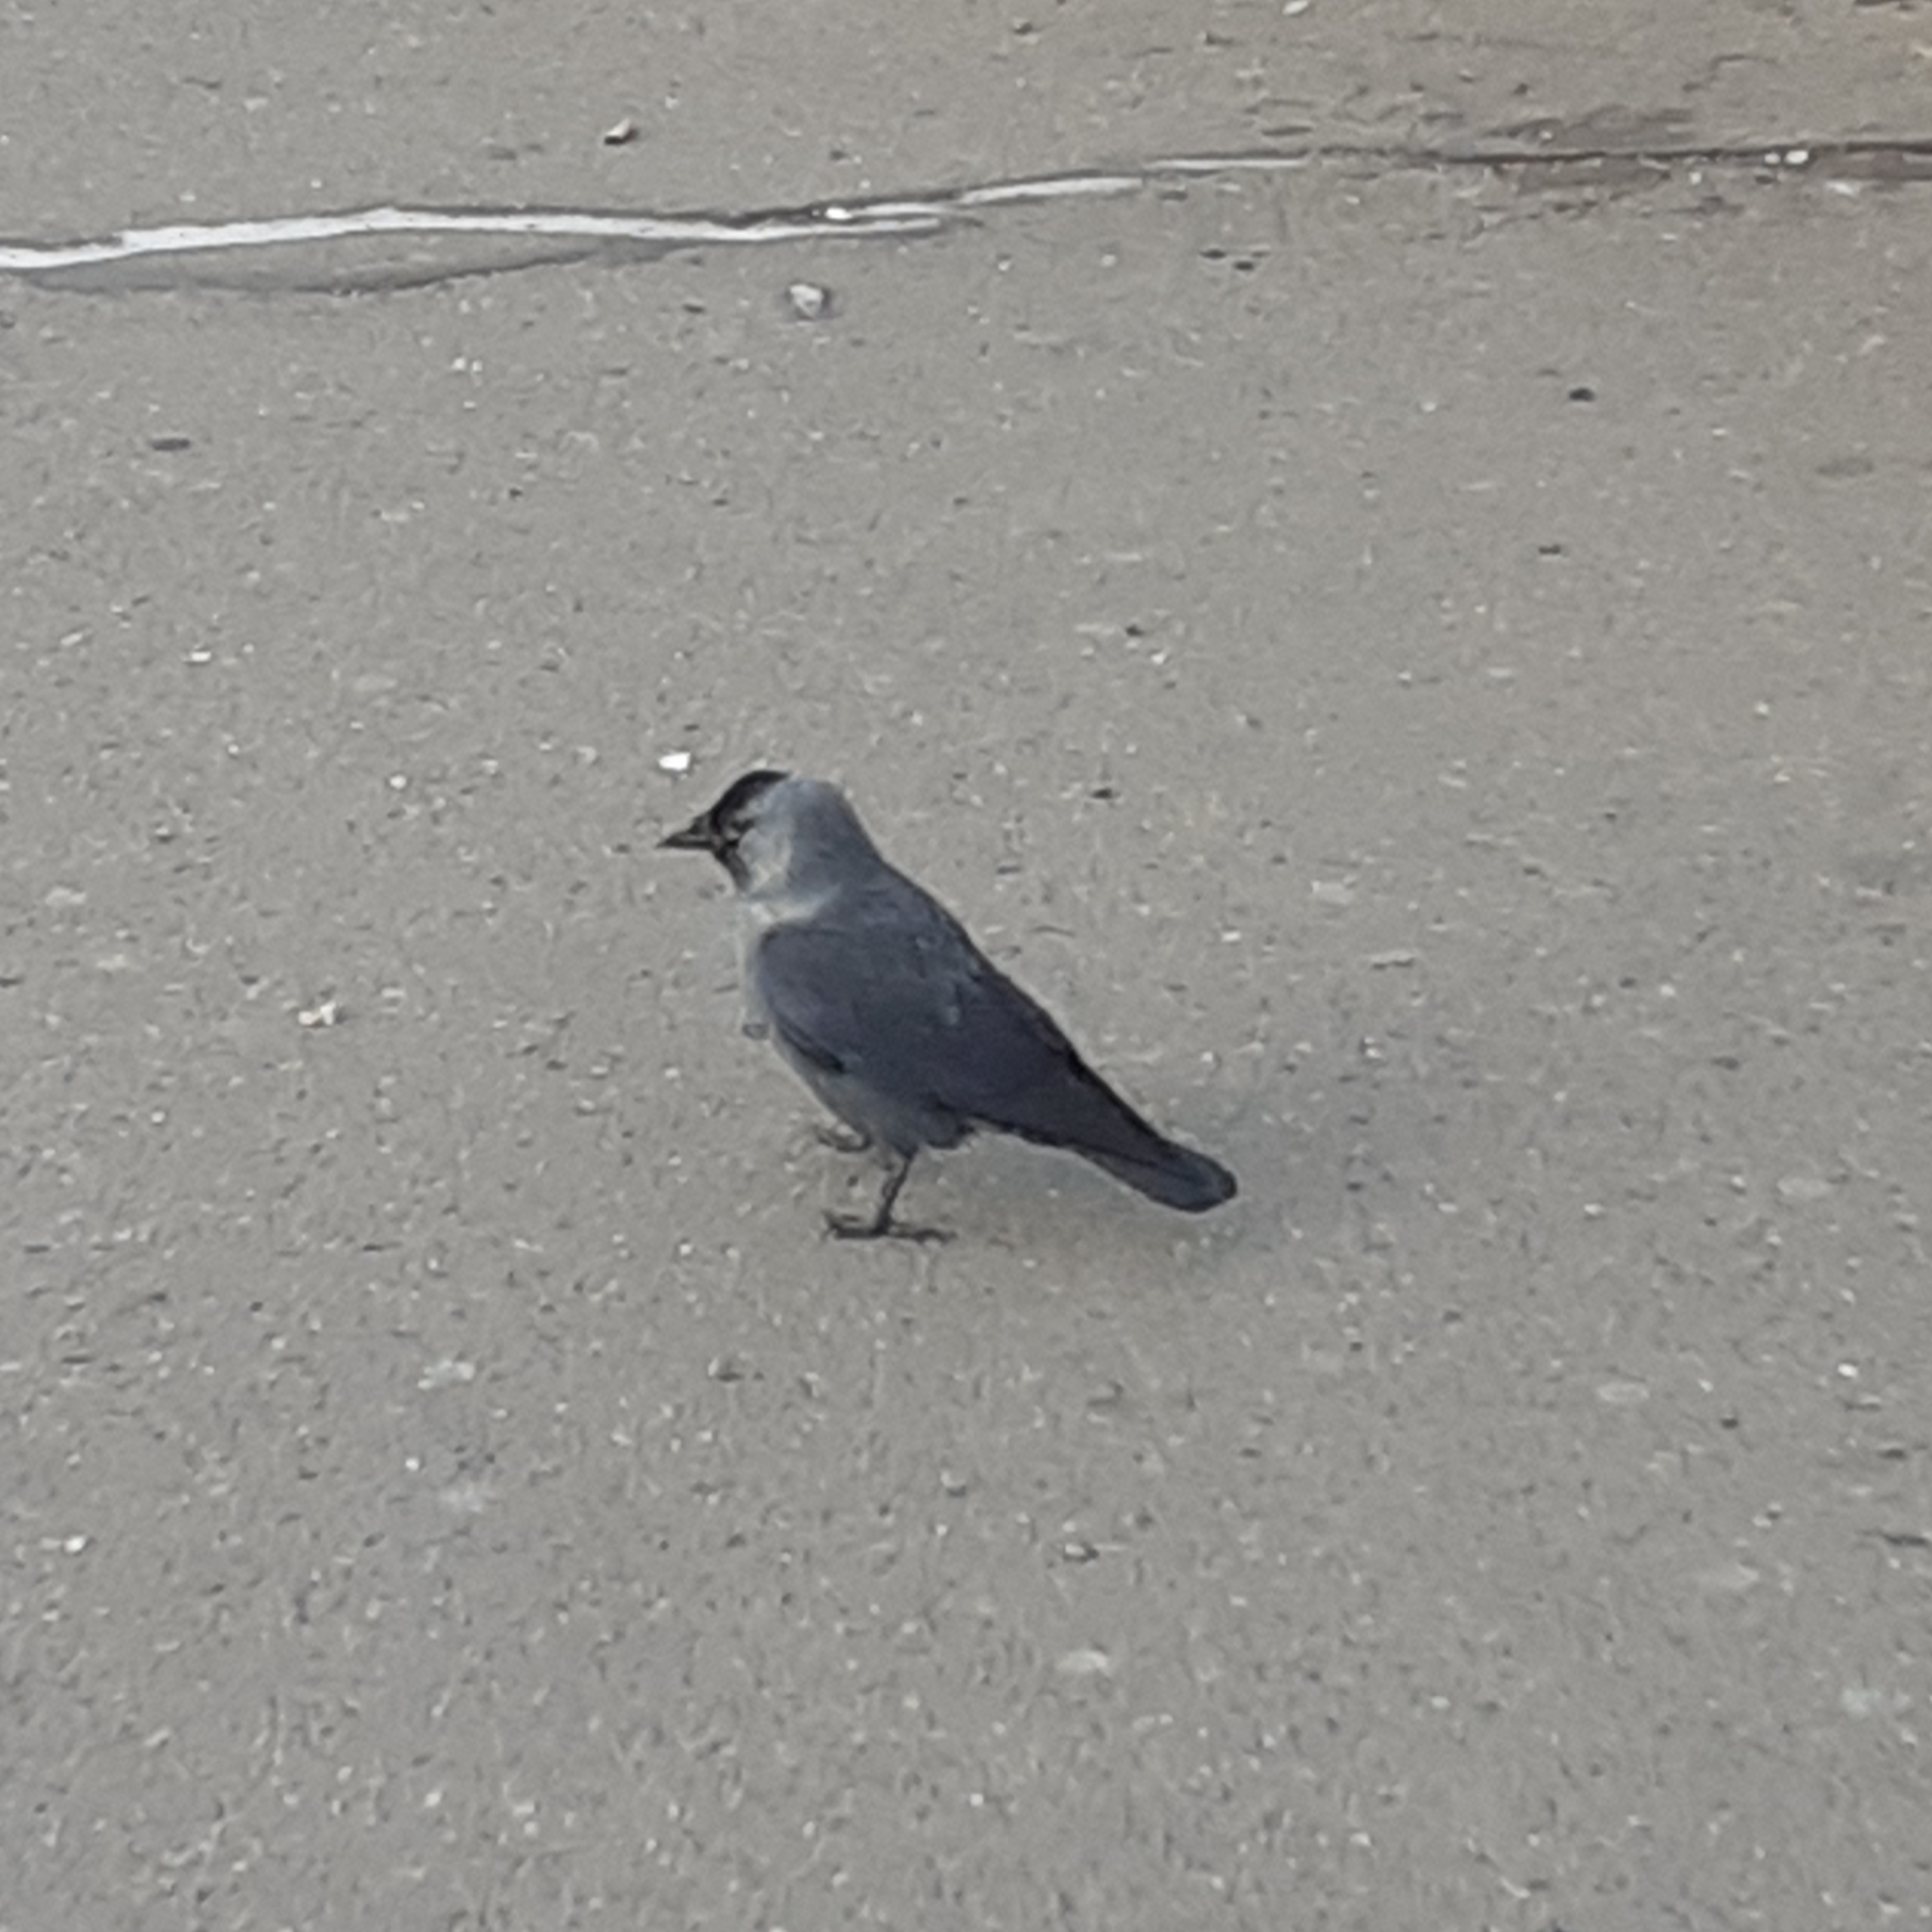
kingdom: Animalia
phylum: Chordata
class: Aves
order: Passeriformes
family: Corvidae
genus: Coloeus
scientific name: Coloeus monedula
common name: Western jackdaw
